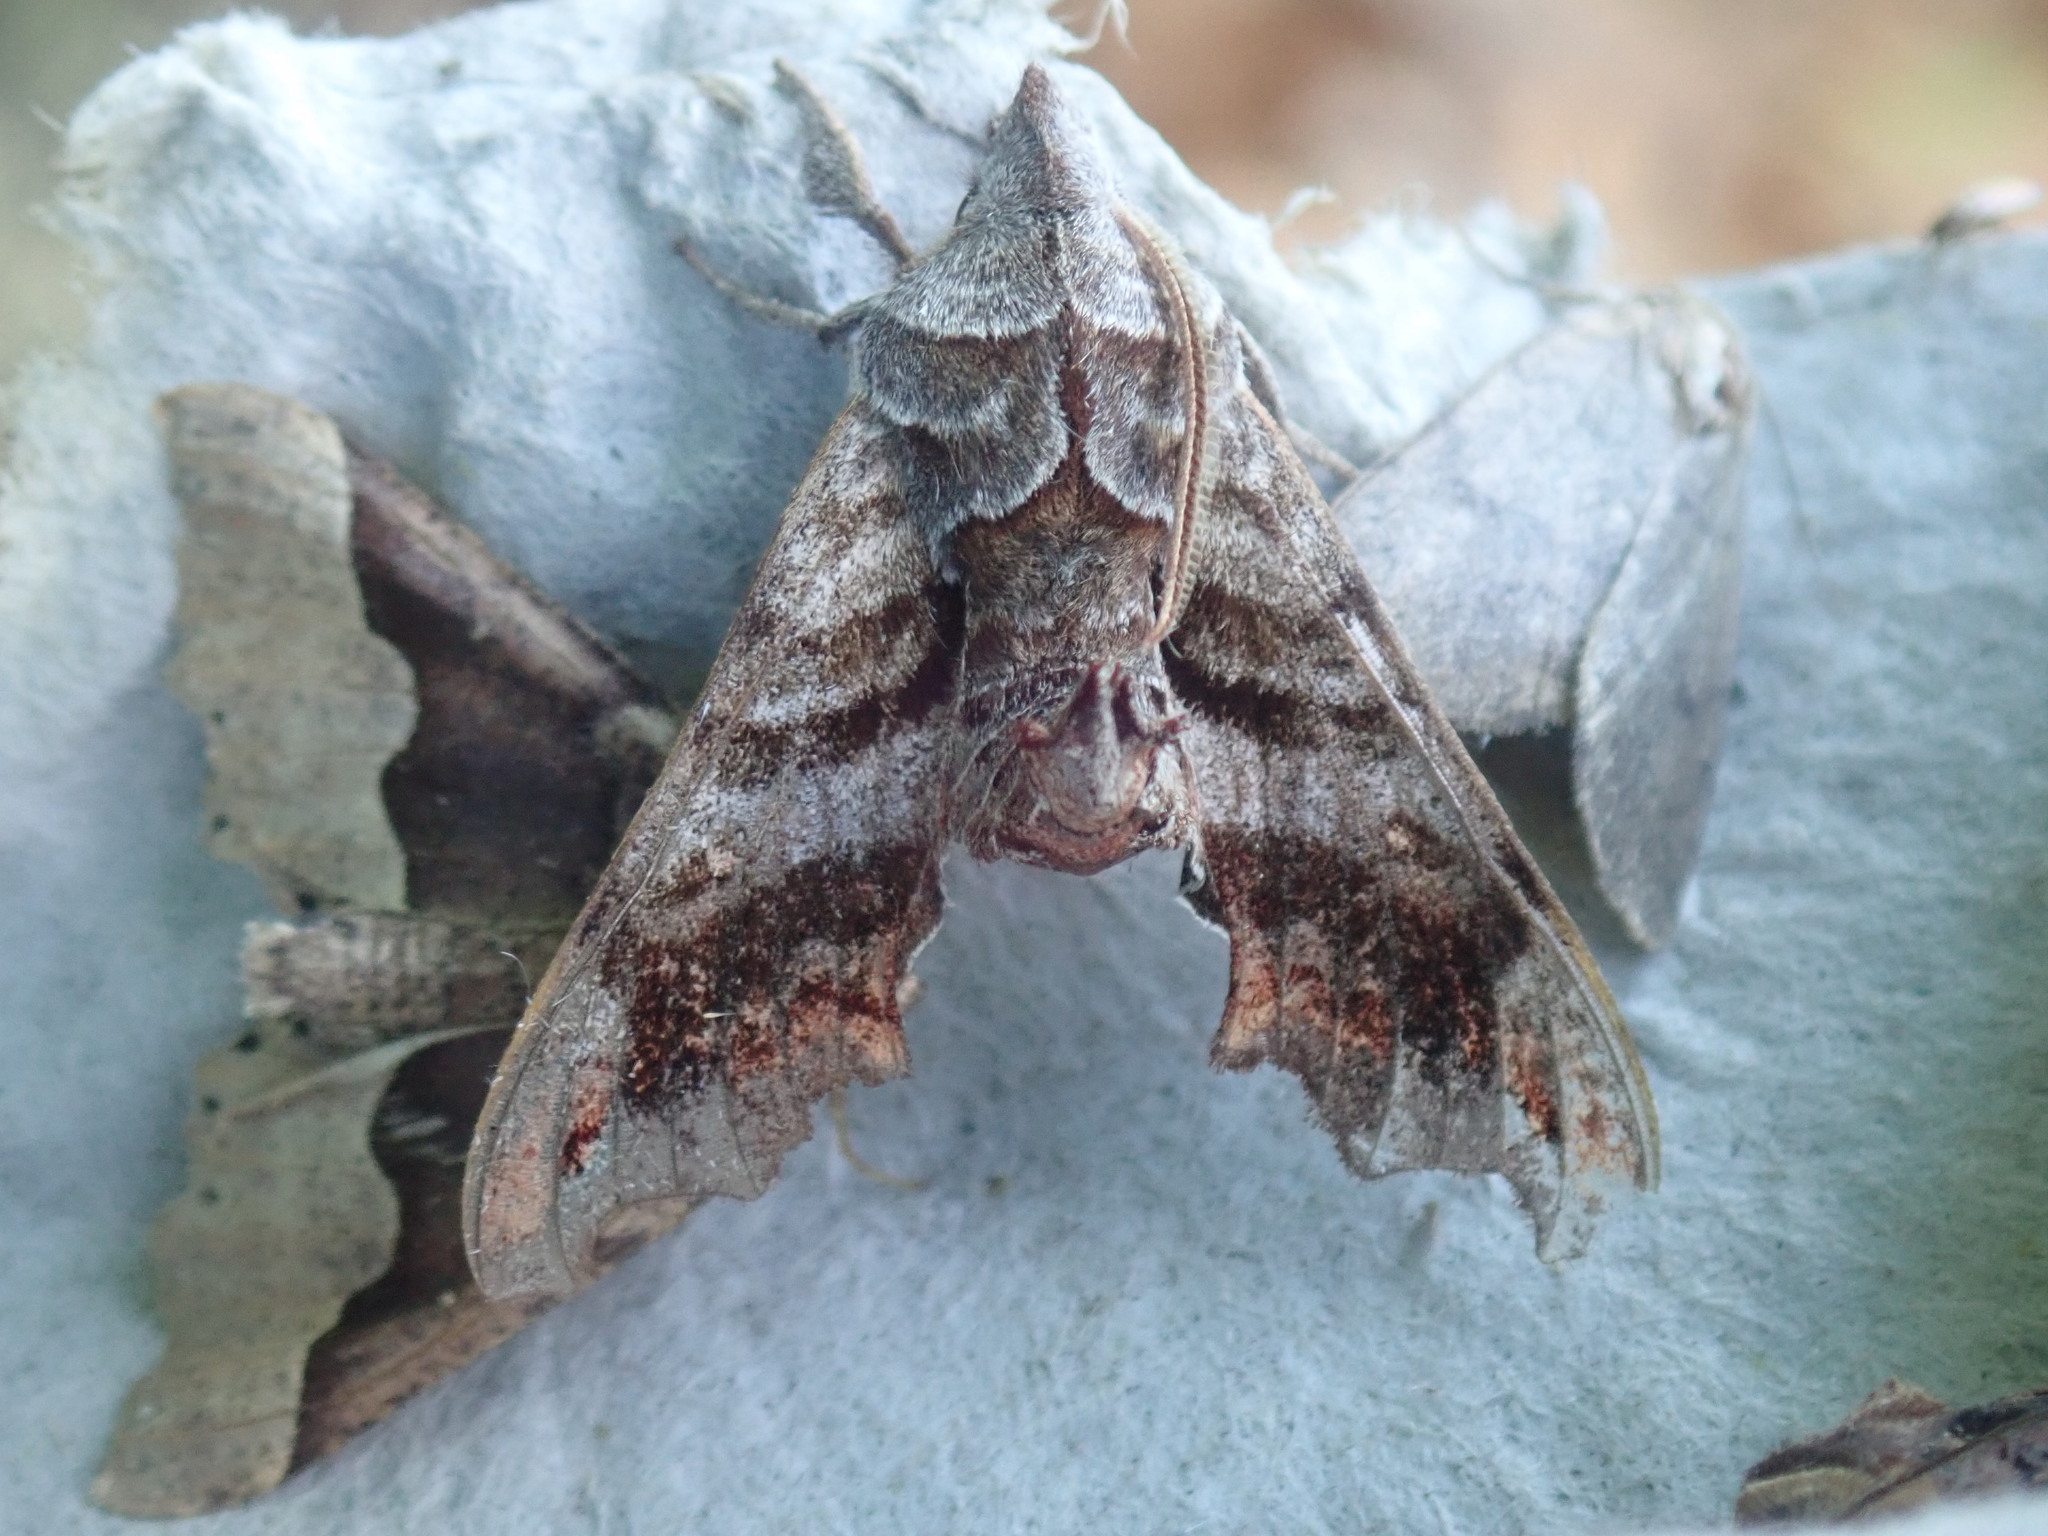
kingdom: Animalia
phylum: Arthropoda
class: Insecta
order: Lepidoptera
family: Sphingidae
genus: Deidamia
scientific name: Deidamia inscriptum
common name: Lettered sphinx
